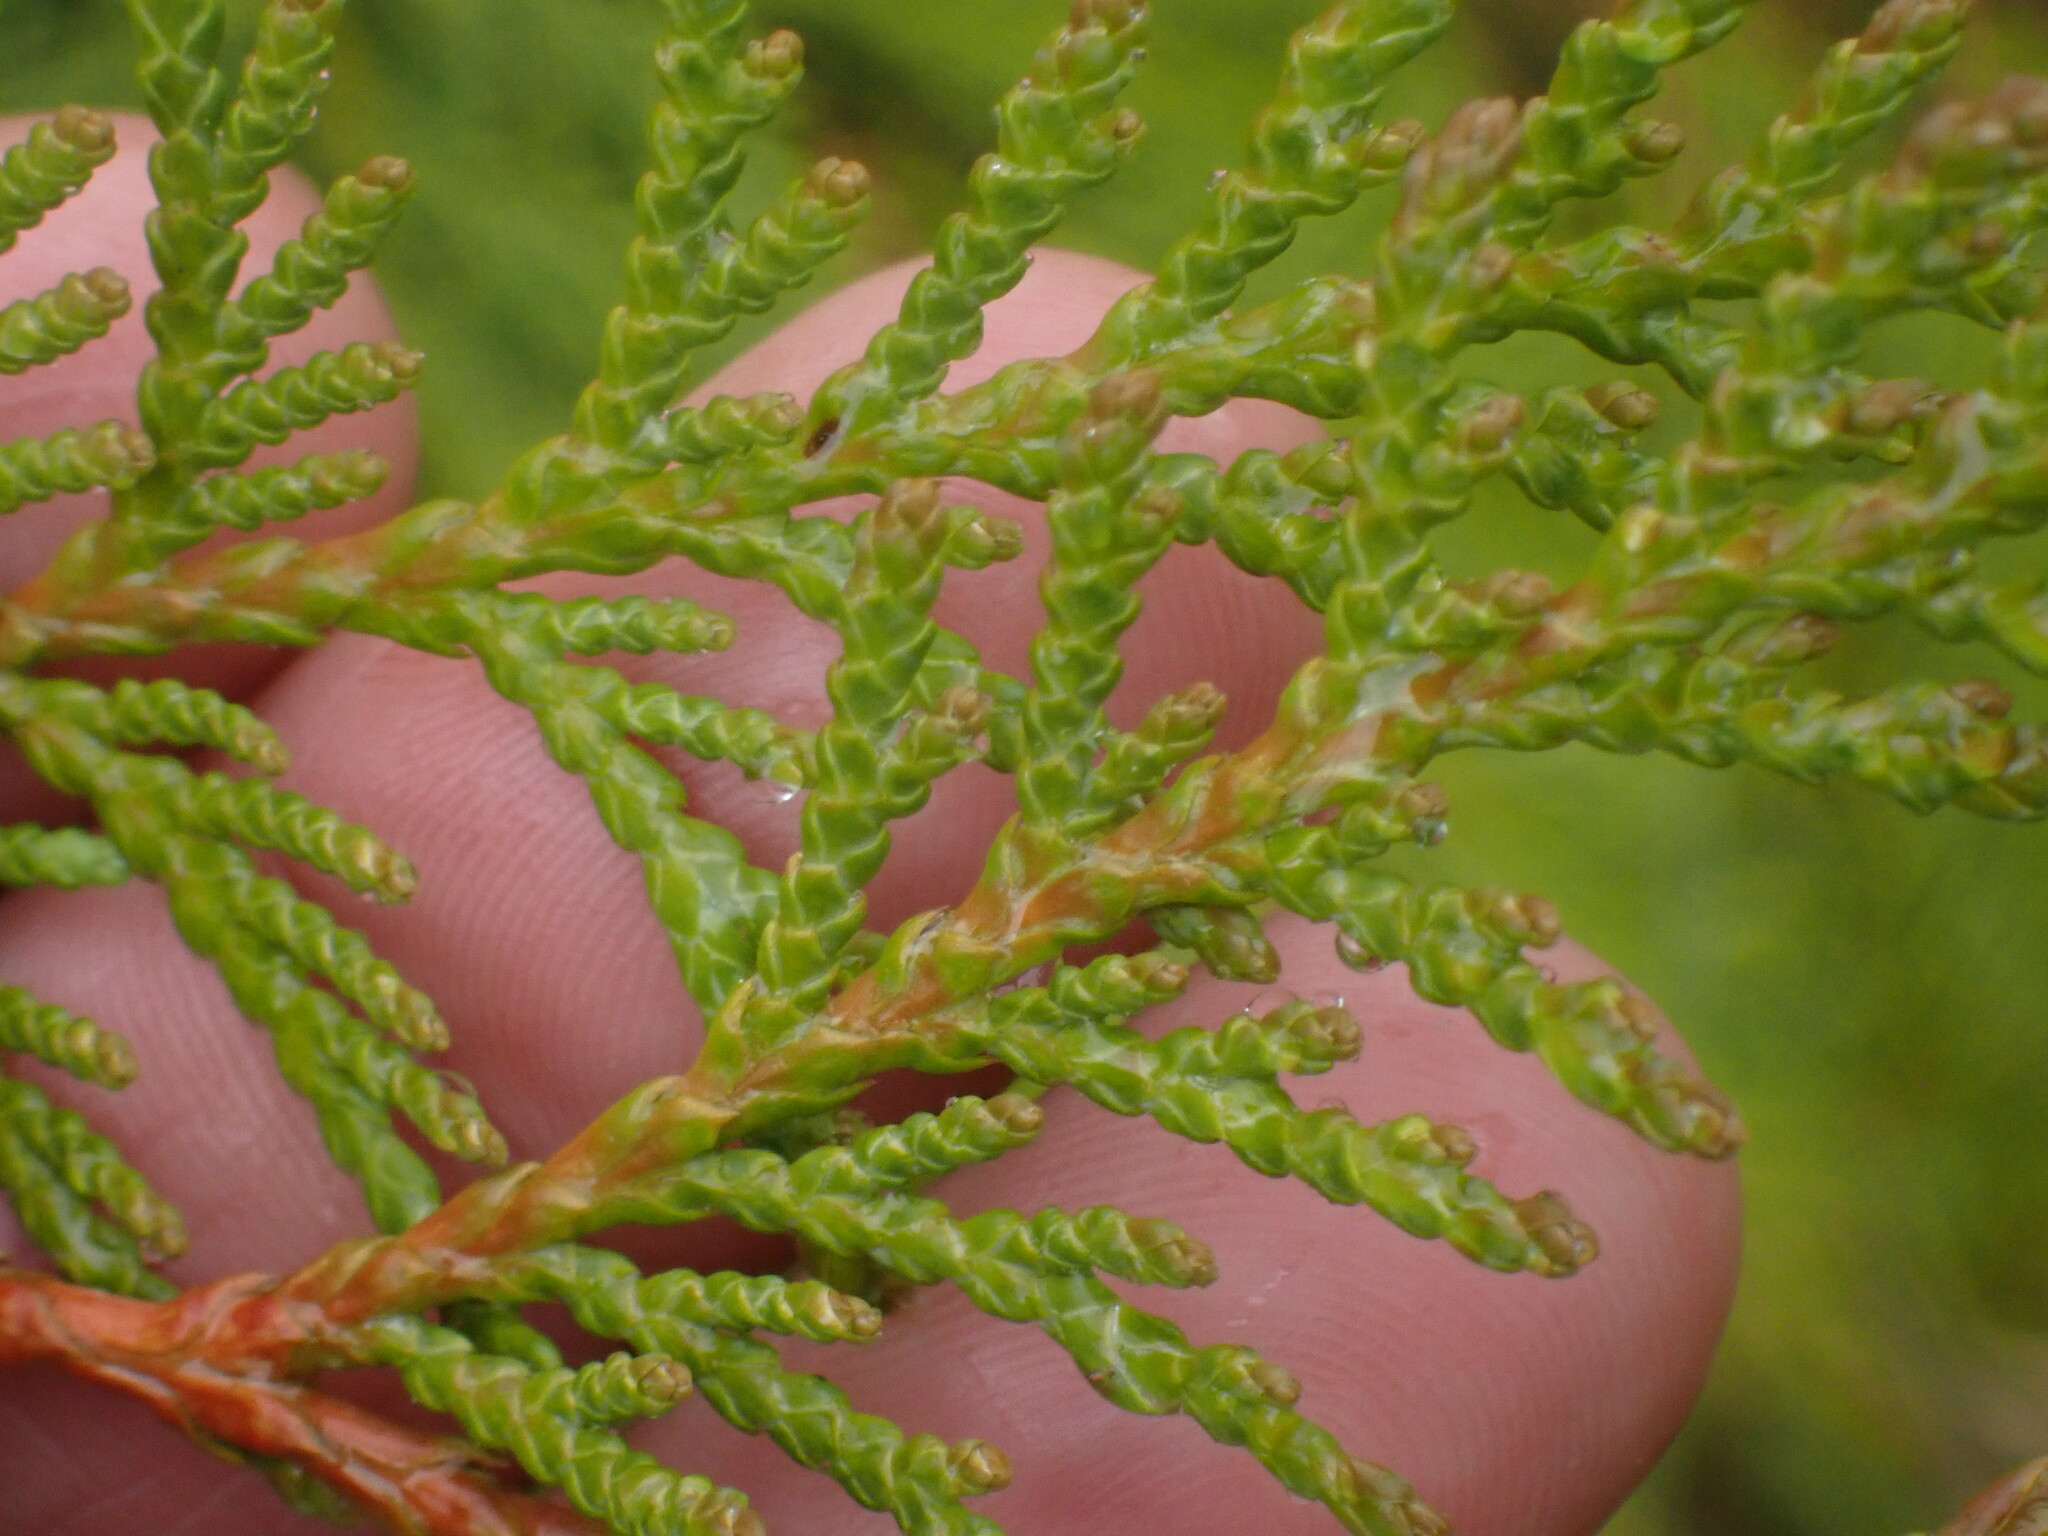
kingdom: Plantae
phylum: Tracheophyta
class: Pinopsida
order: Pinales
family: Cupressaceae
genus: Thuja
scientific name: Thuja plicata
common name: Western red-cedar
